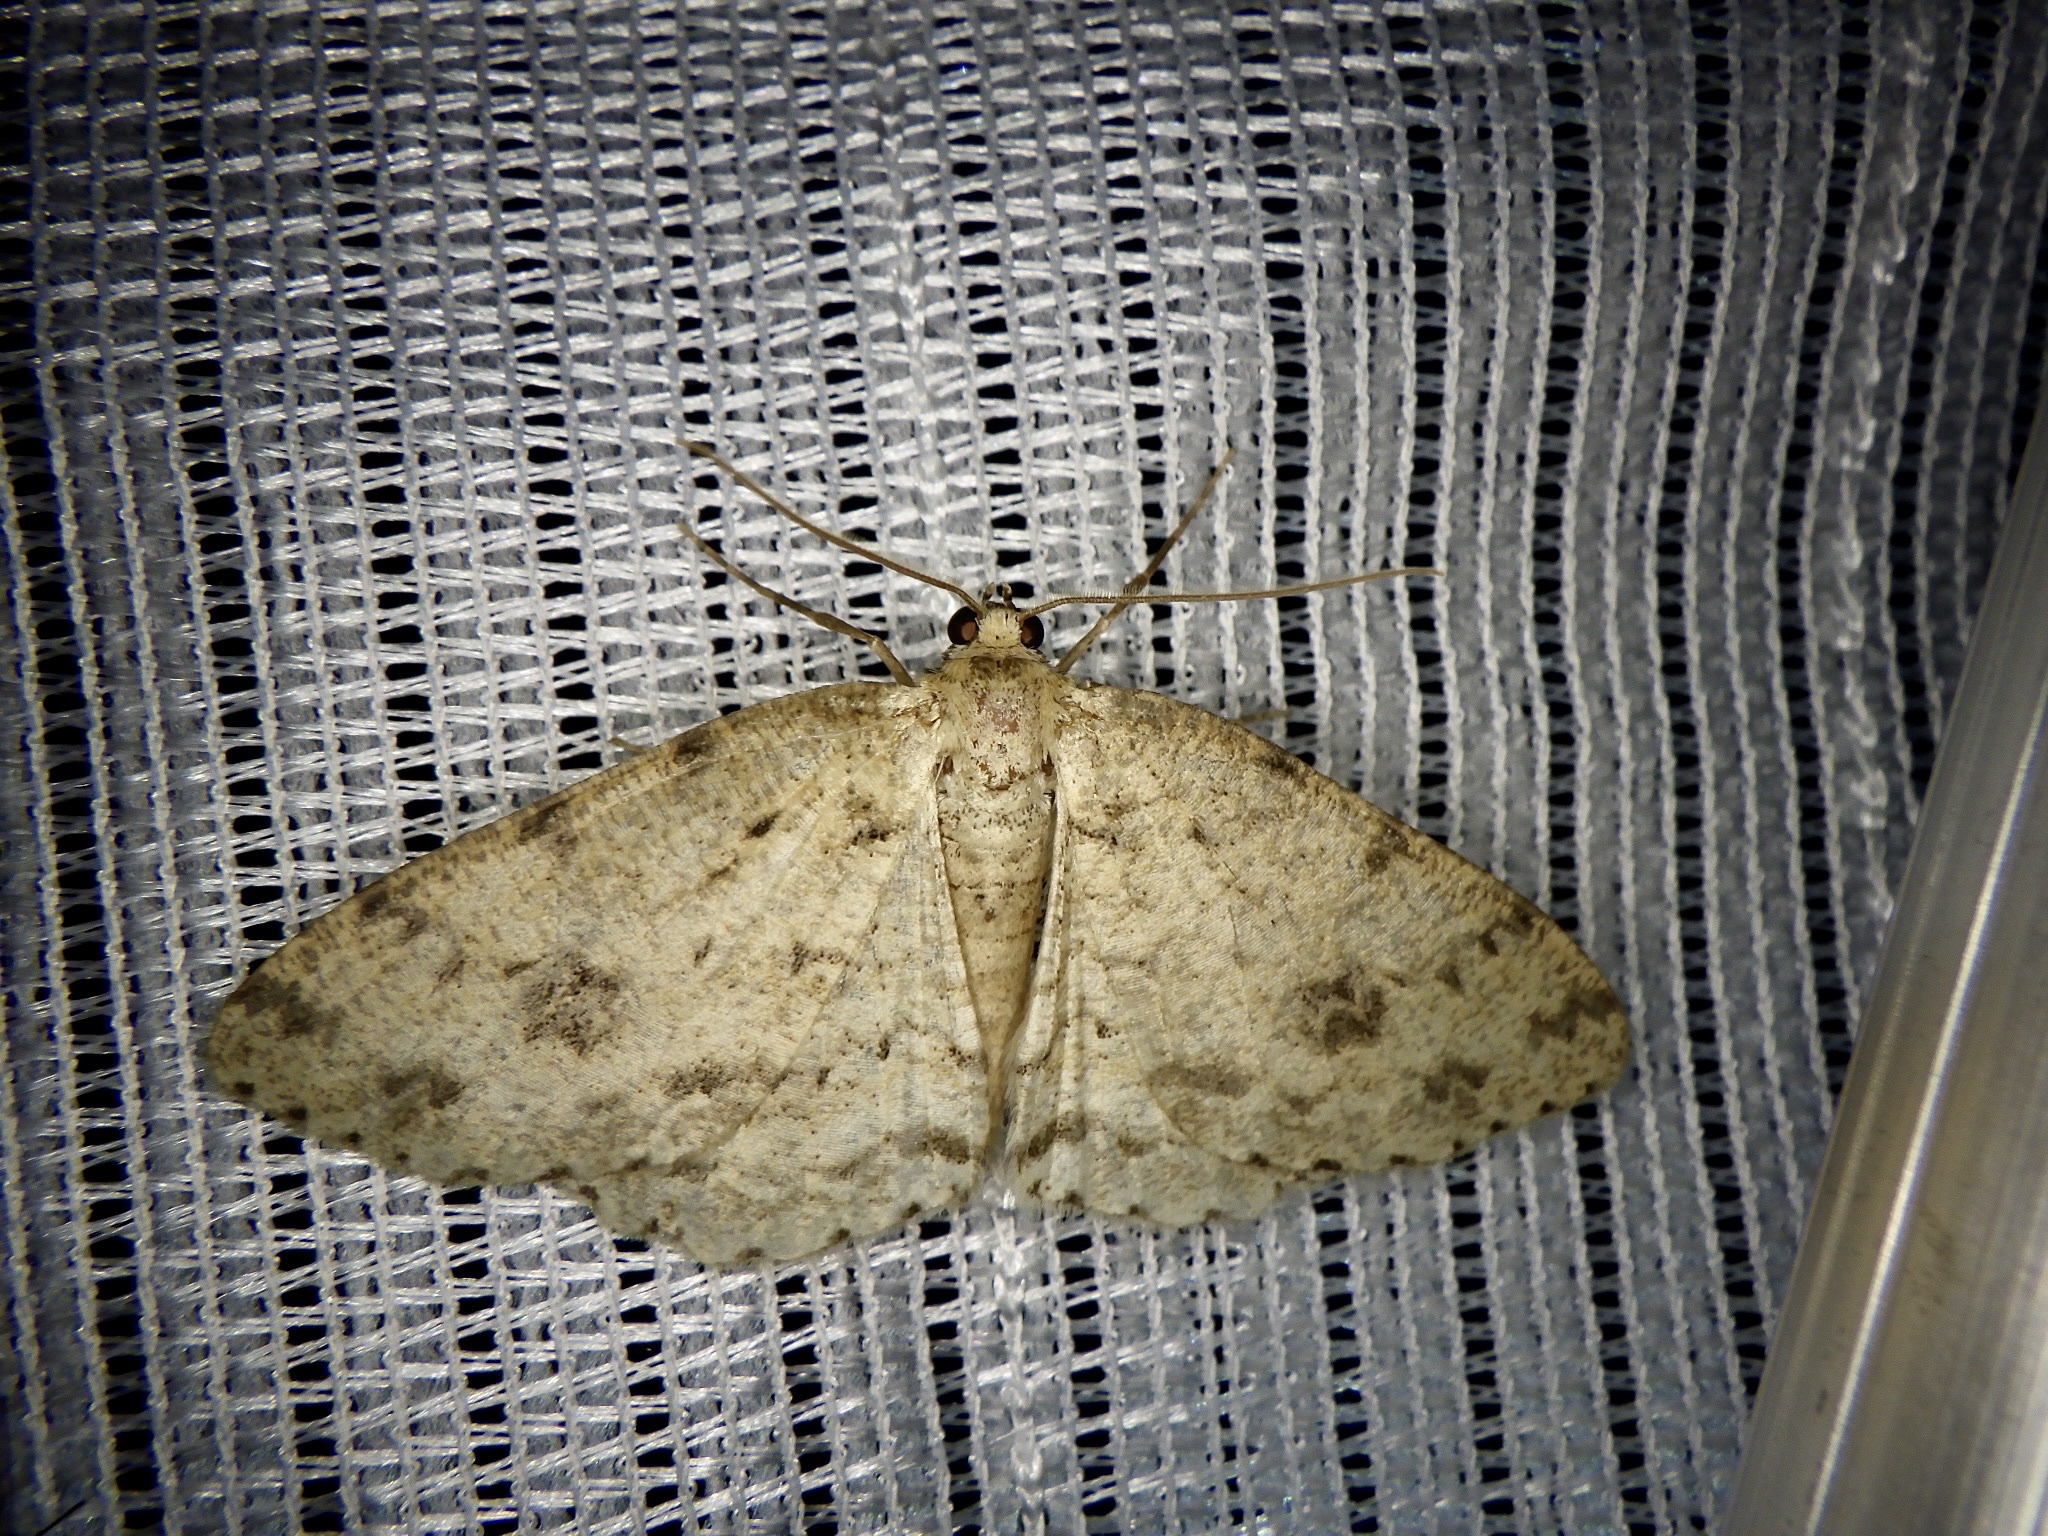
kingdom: Animalia
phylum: Arthropoda
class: Insecta
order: Lepidoptera
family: Geometridae
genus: Ectropis
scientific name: Ectropis excellens
